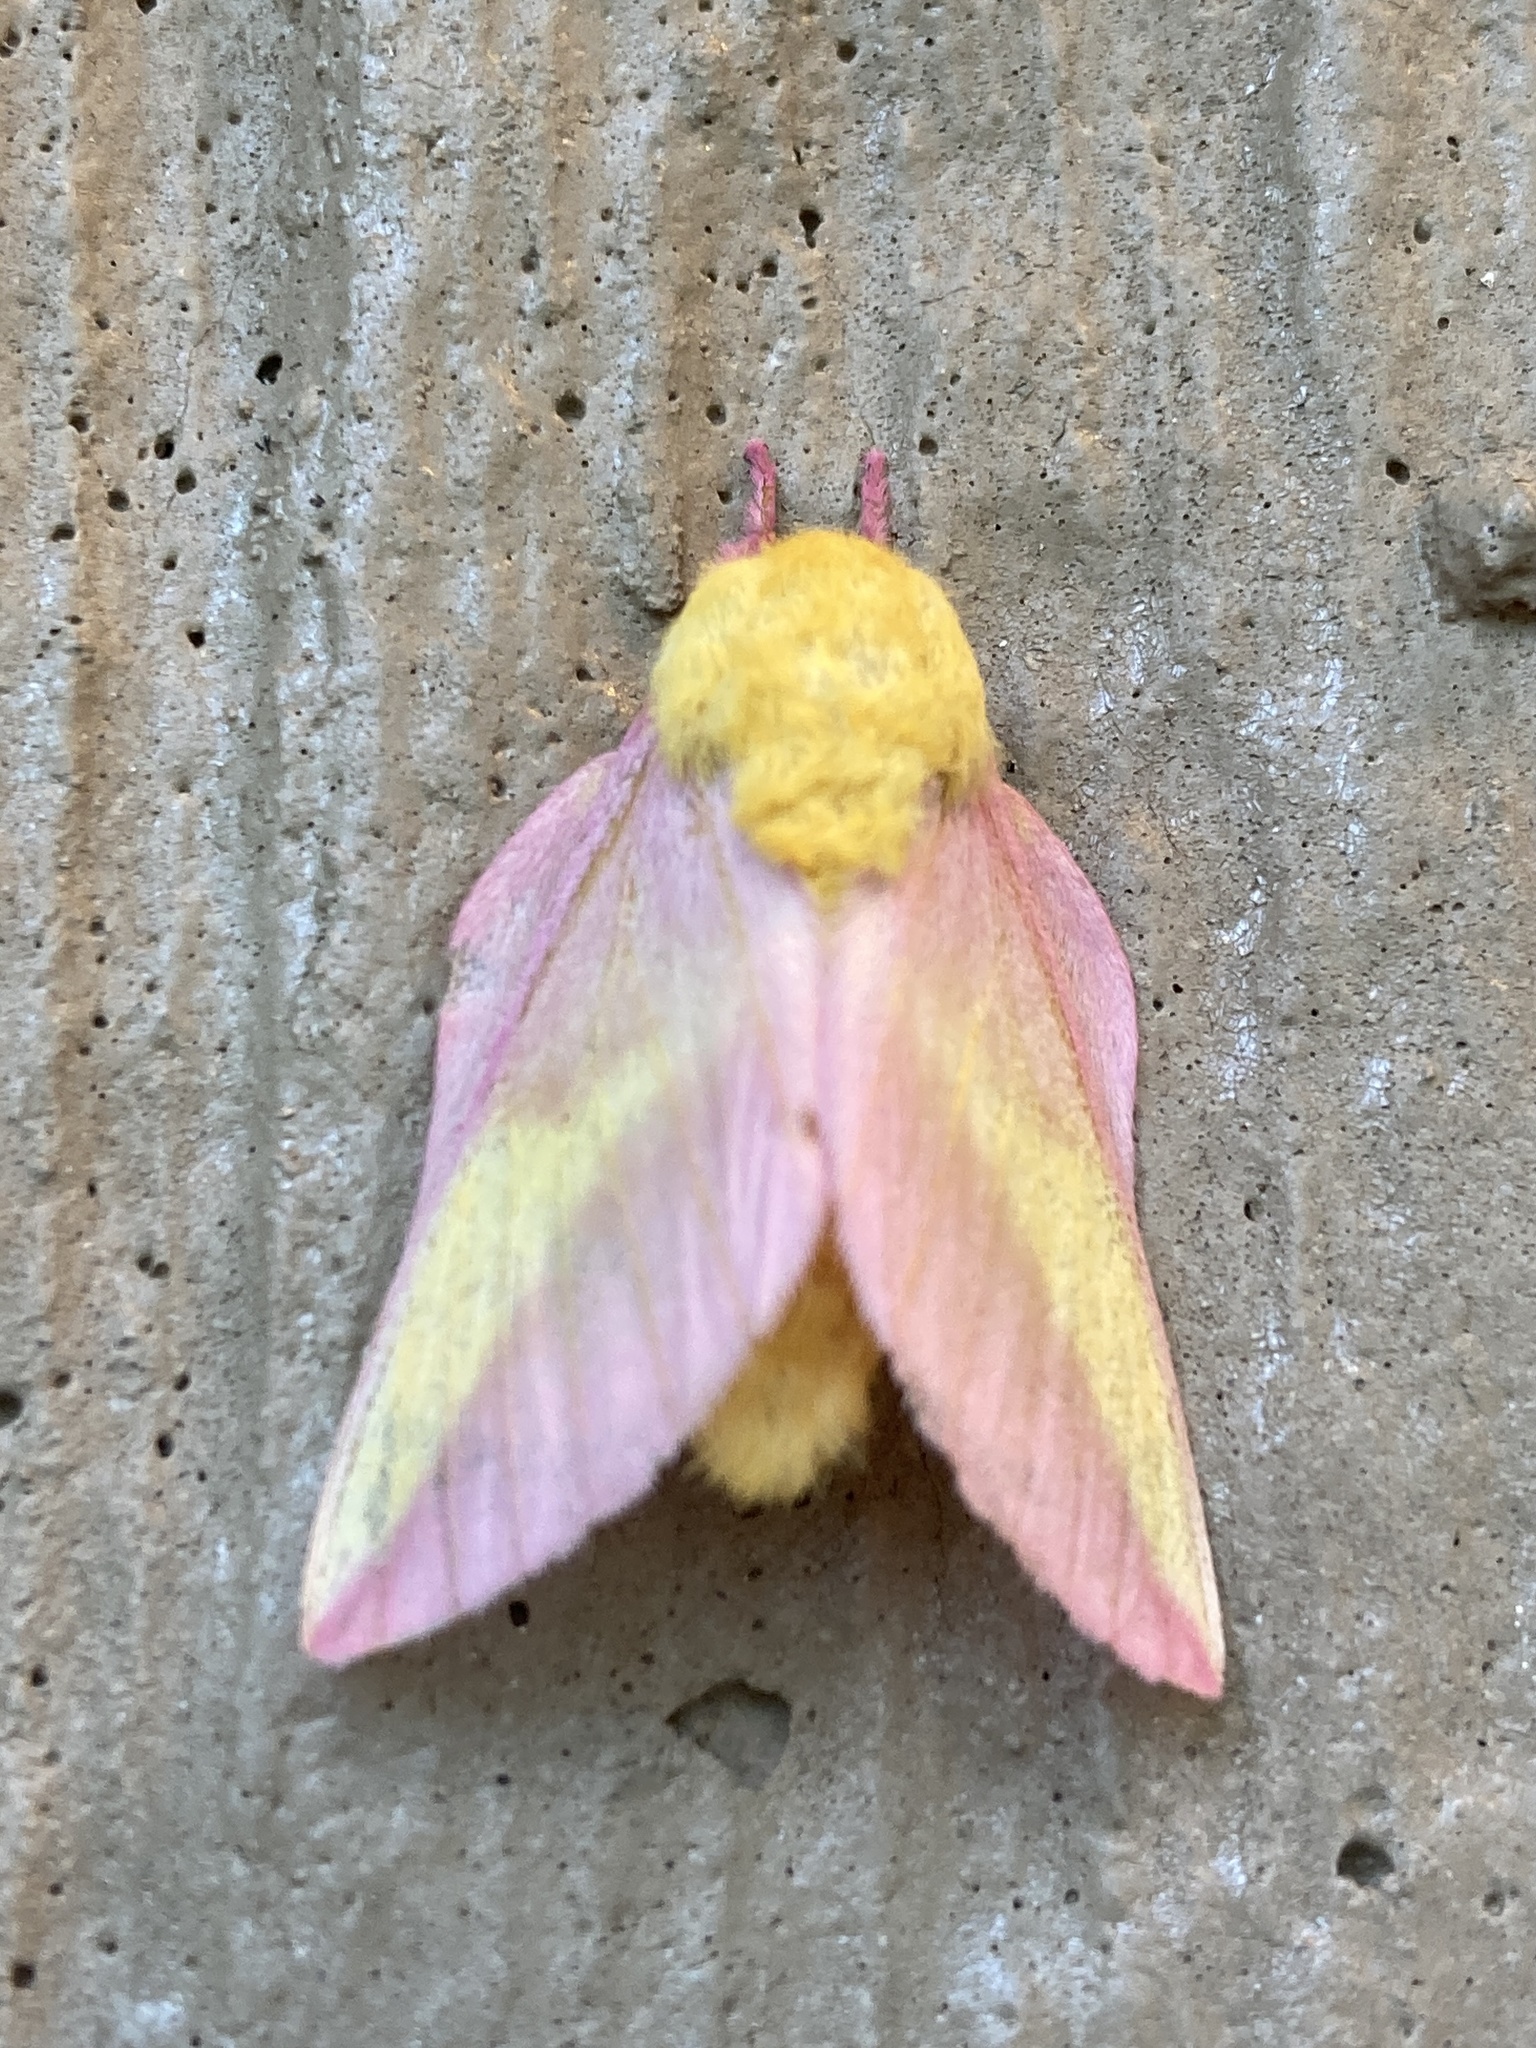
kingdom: Animalia
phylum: Arthropoda
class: Insecta
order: Lepidoptera
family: Saturniidae
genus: Dryocampa
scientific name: Dryocampa rubicunda
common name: Rosy maple moth
